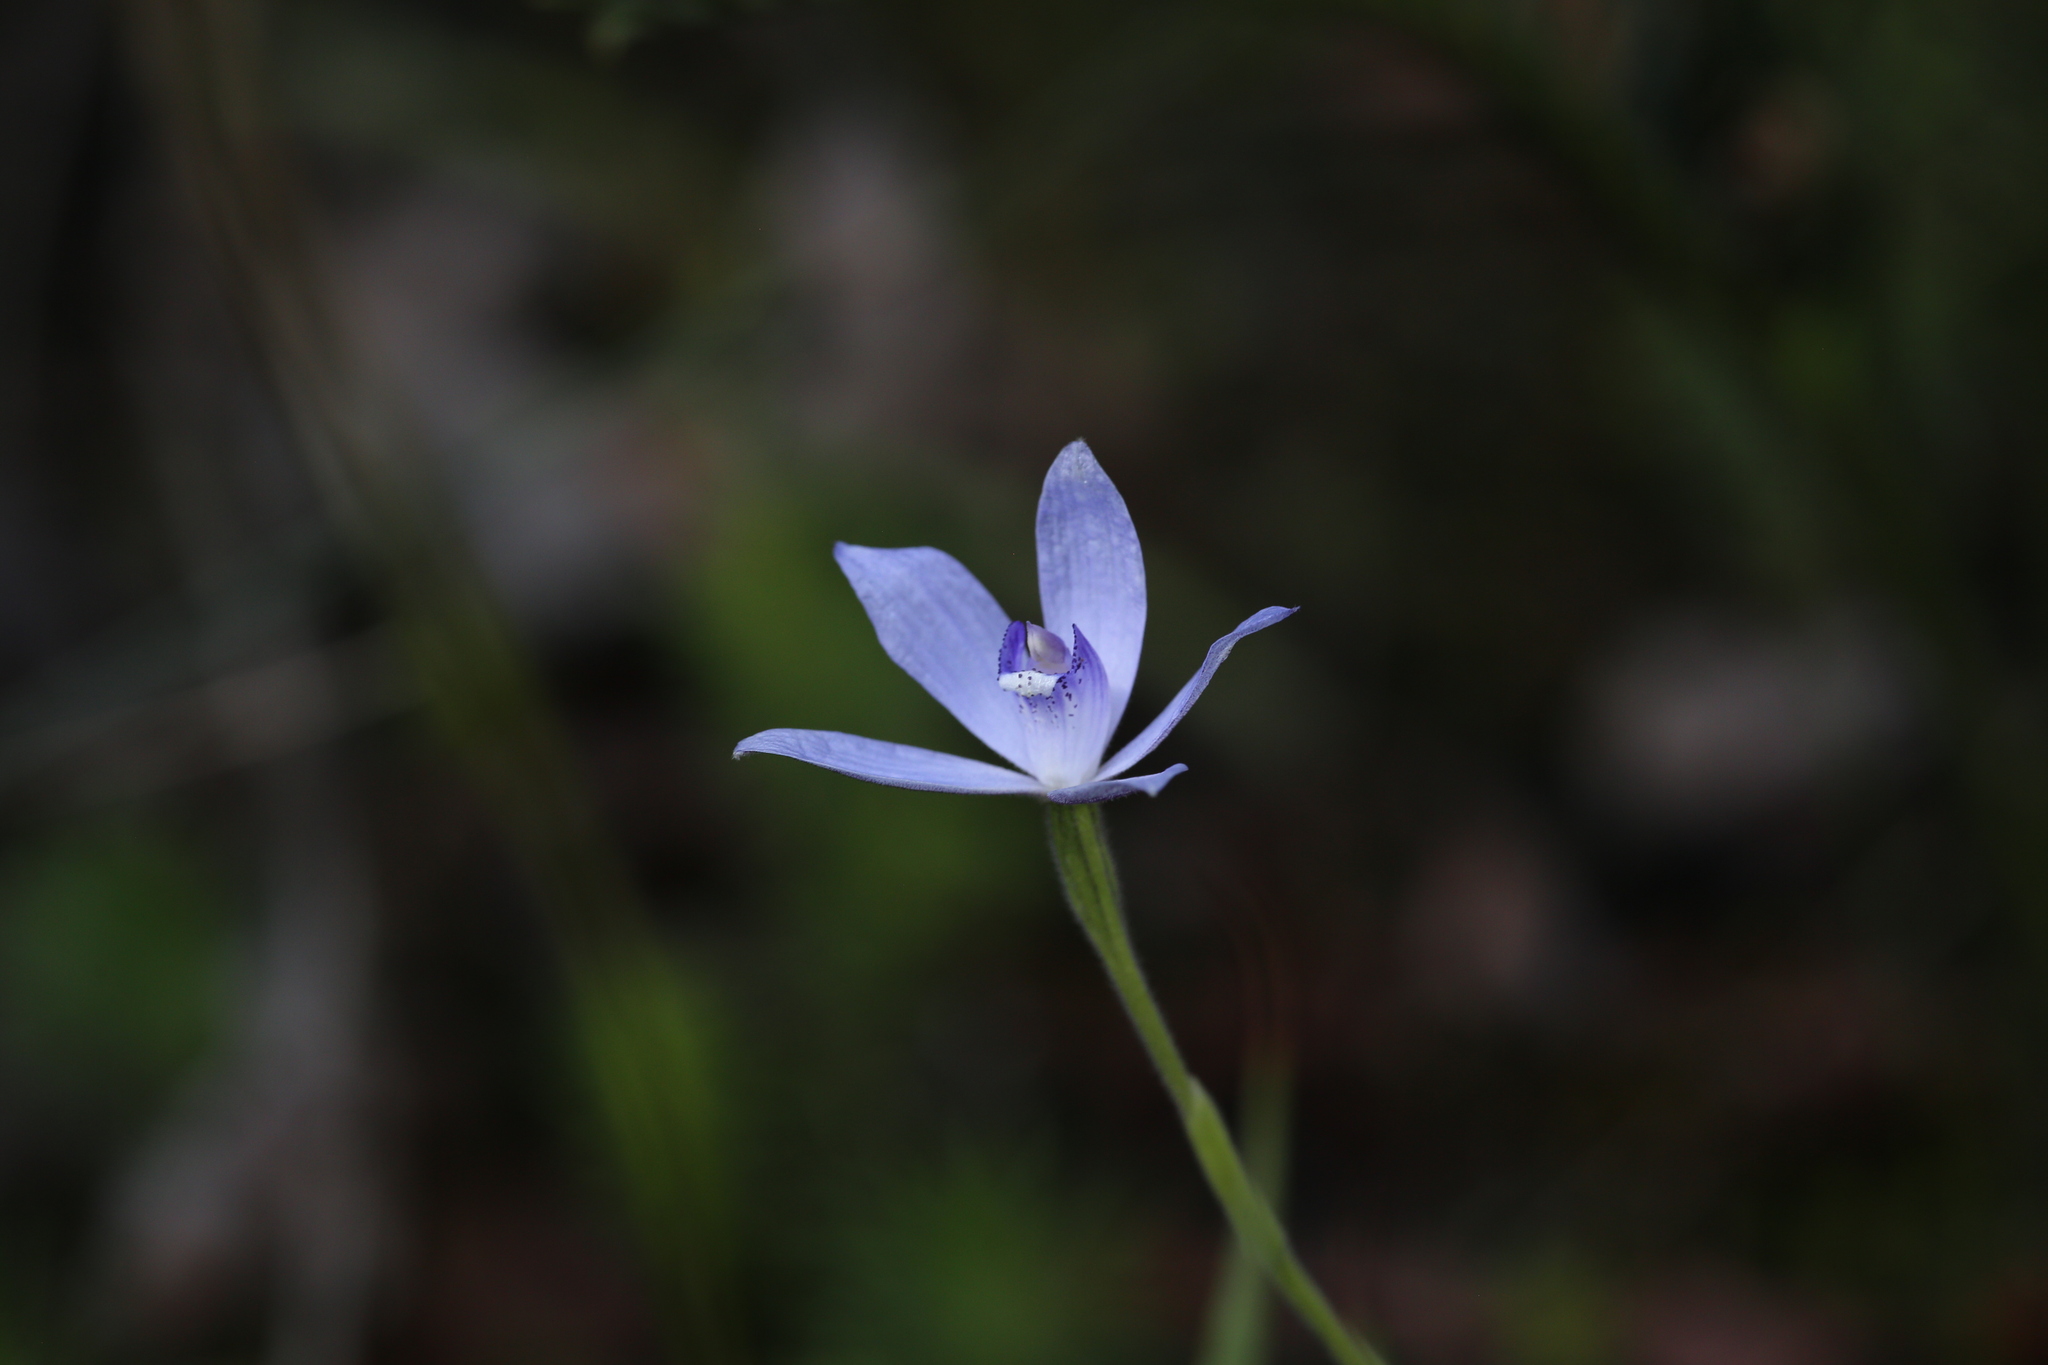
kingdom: Plantae
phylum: Tracheophyta
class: Liliopsida
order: Asparagales
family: Orchidaceae
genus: Caladenia
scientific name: Caladenia sericea
